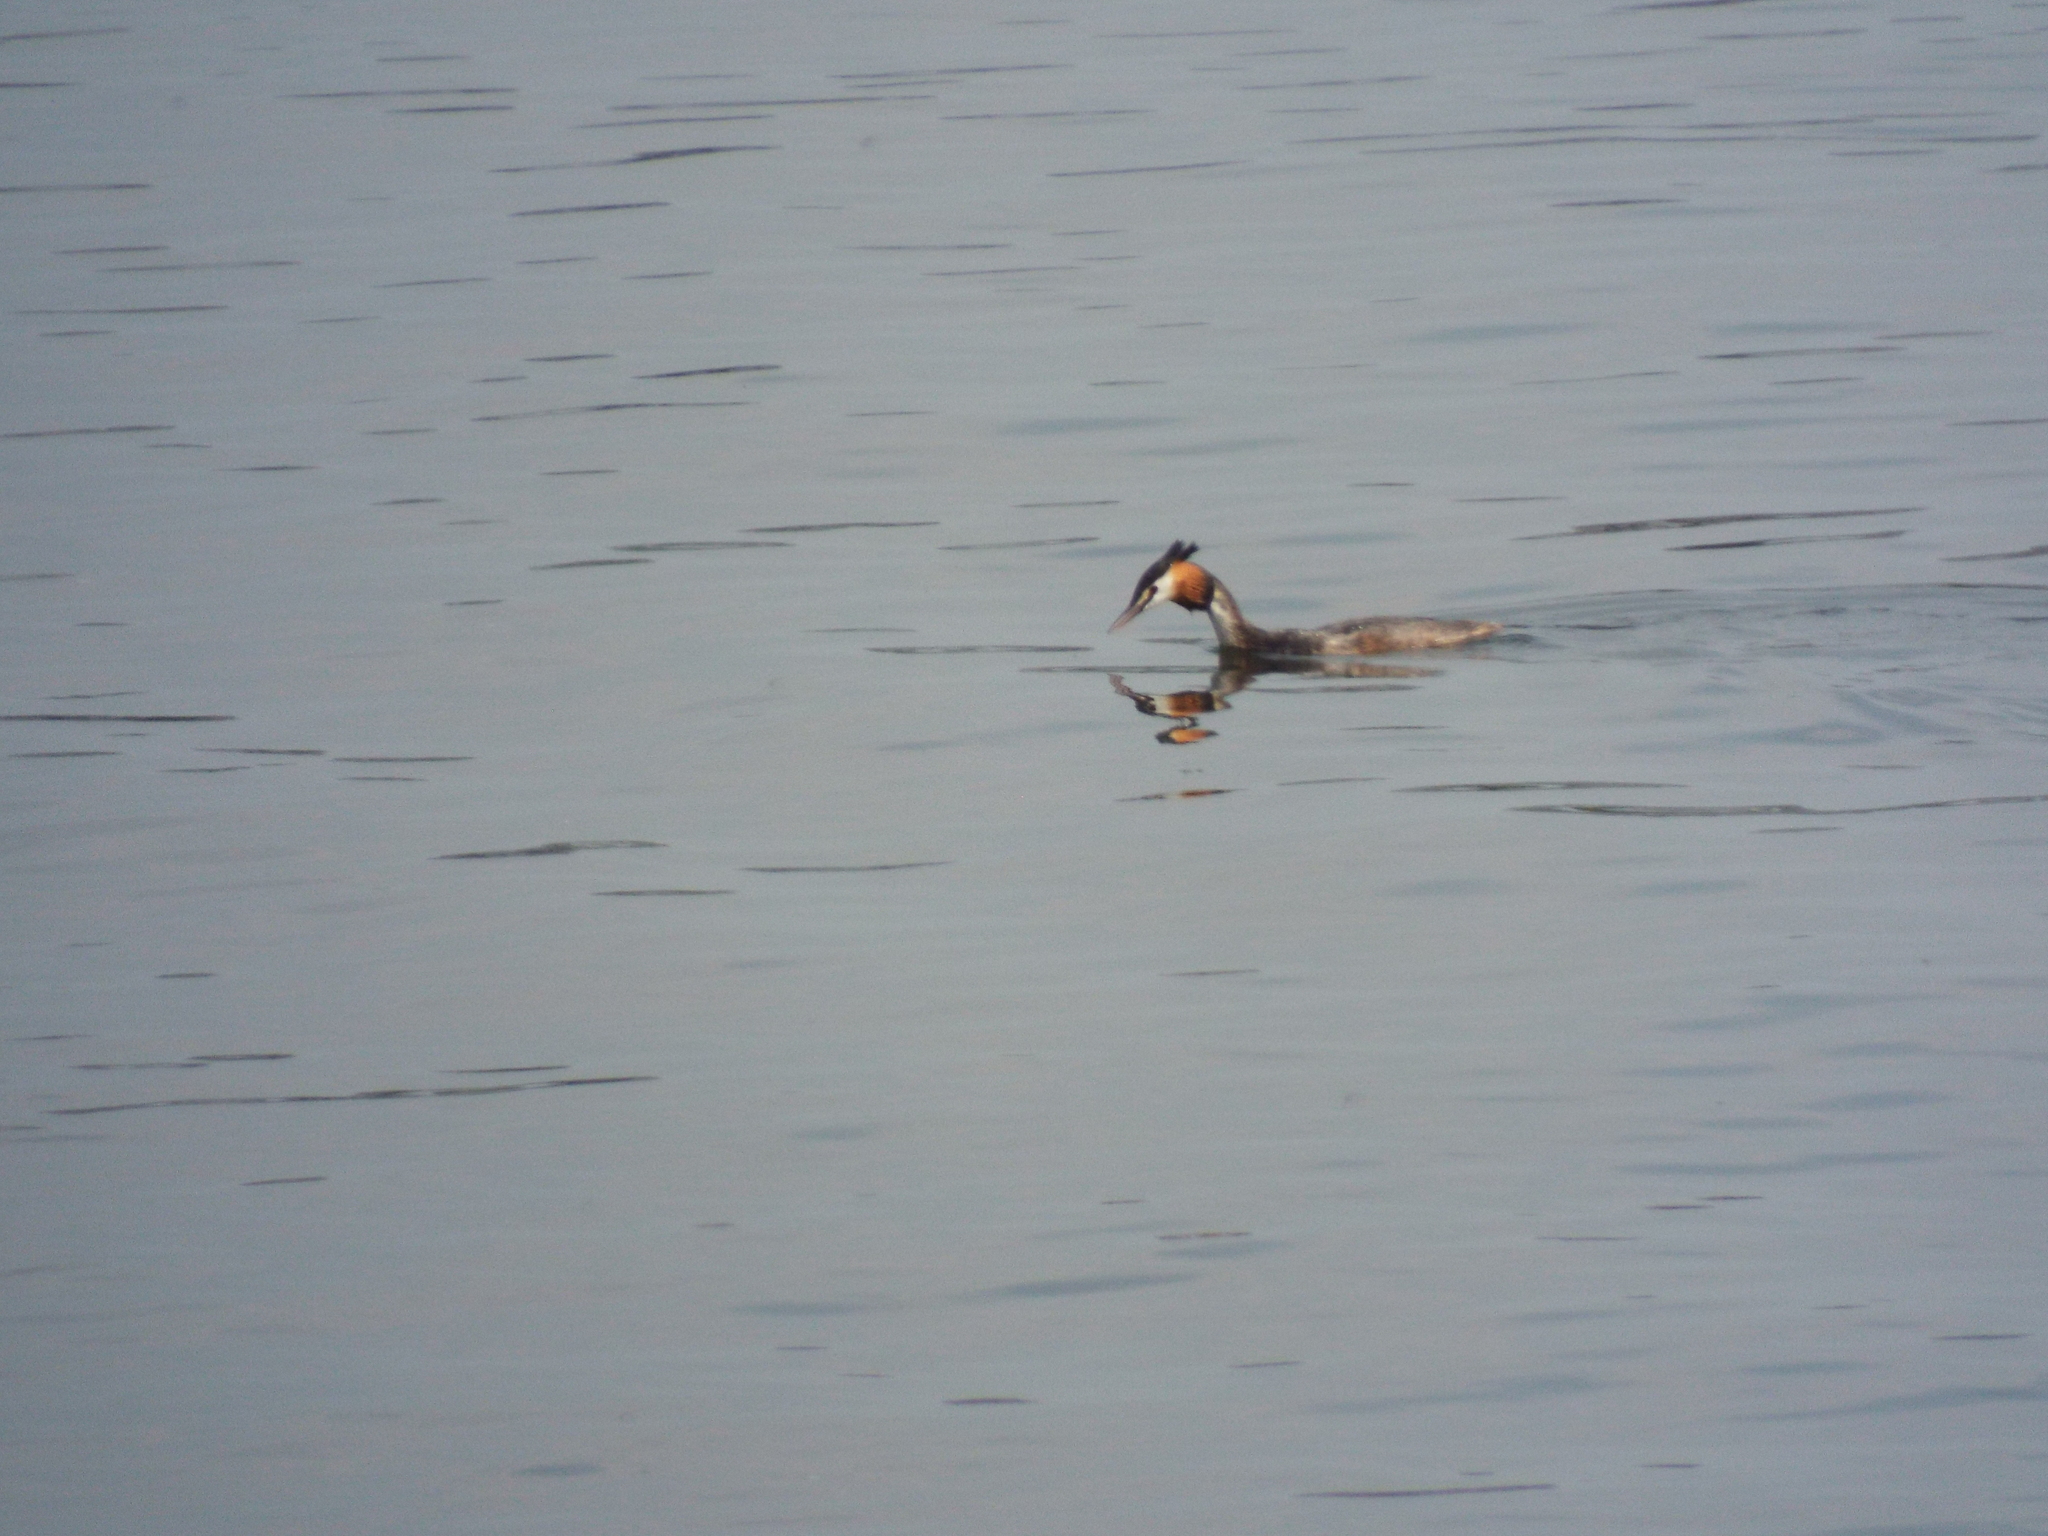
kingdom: Animalia
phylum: Chordata
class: Aves
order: Podicipediformes
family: Podicipedidae
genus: Podiceps
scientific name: Podiceps cristatus
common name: Great crested grebe
